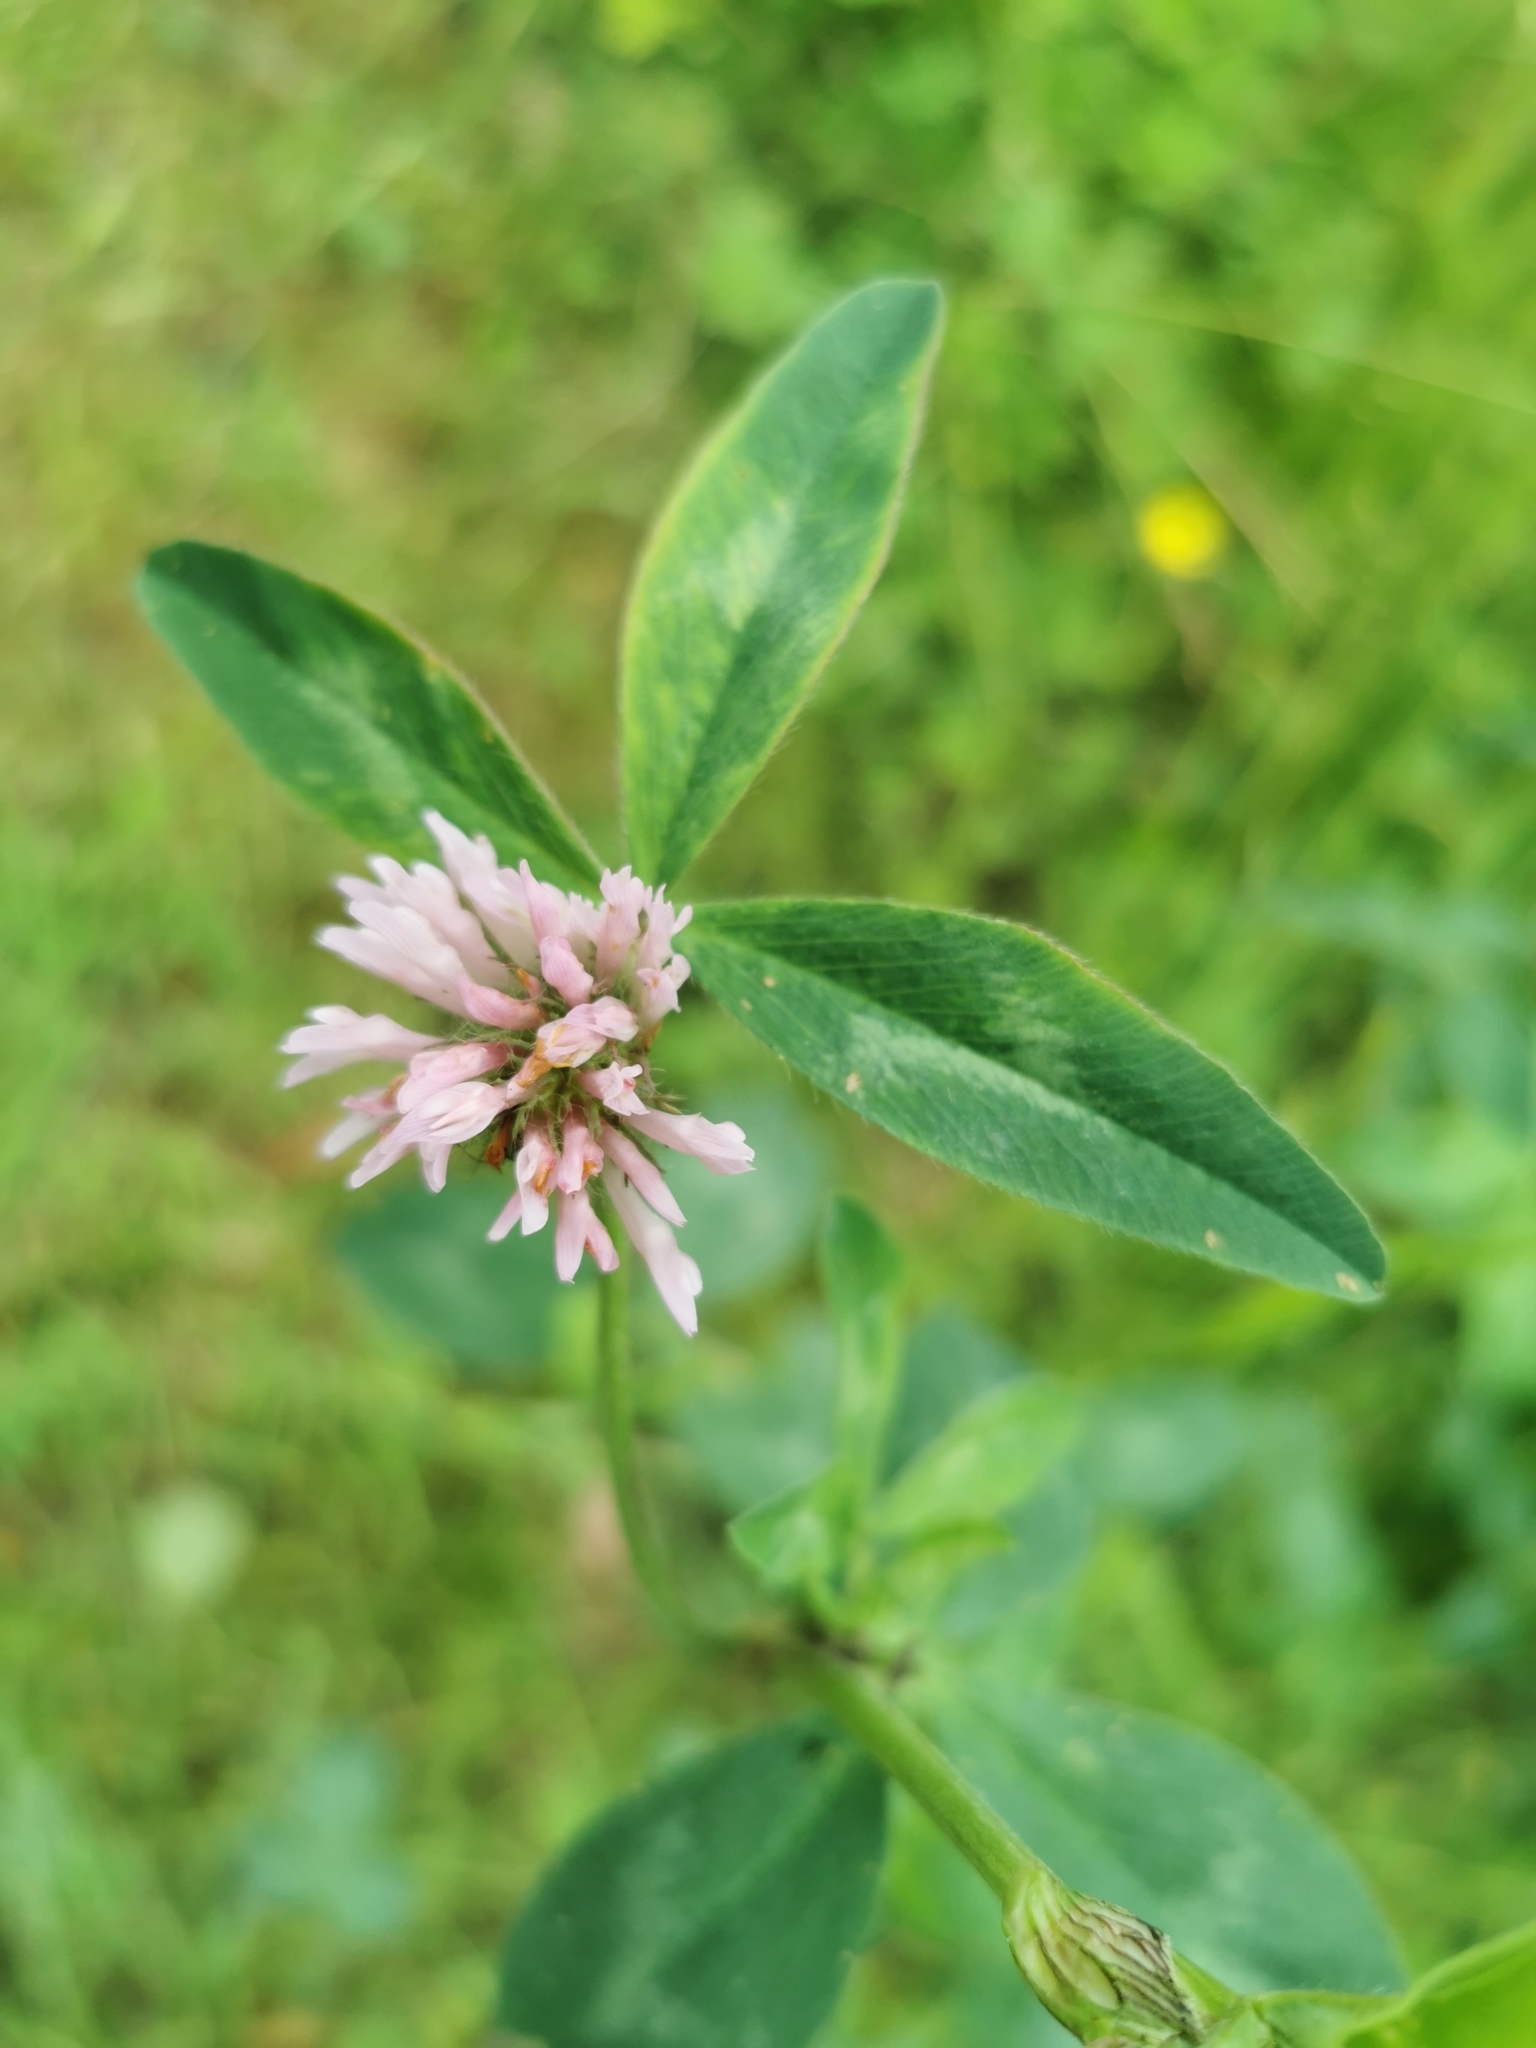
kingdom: Plantae
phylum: Tracheophyta
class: Magnoliopsida
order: Fabales
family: Fabaceae
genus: Trifolium
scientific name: Trifolium pratense
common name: Red clover
